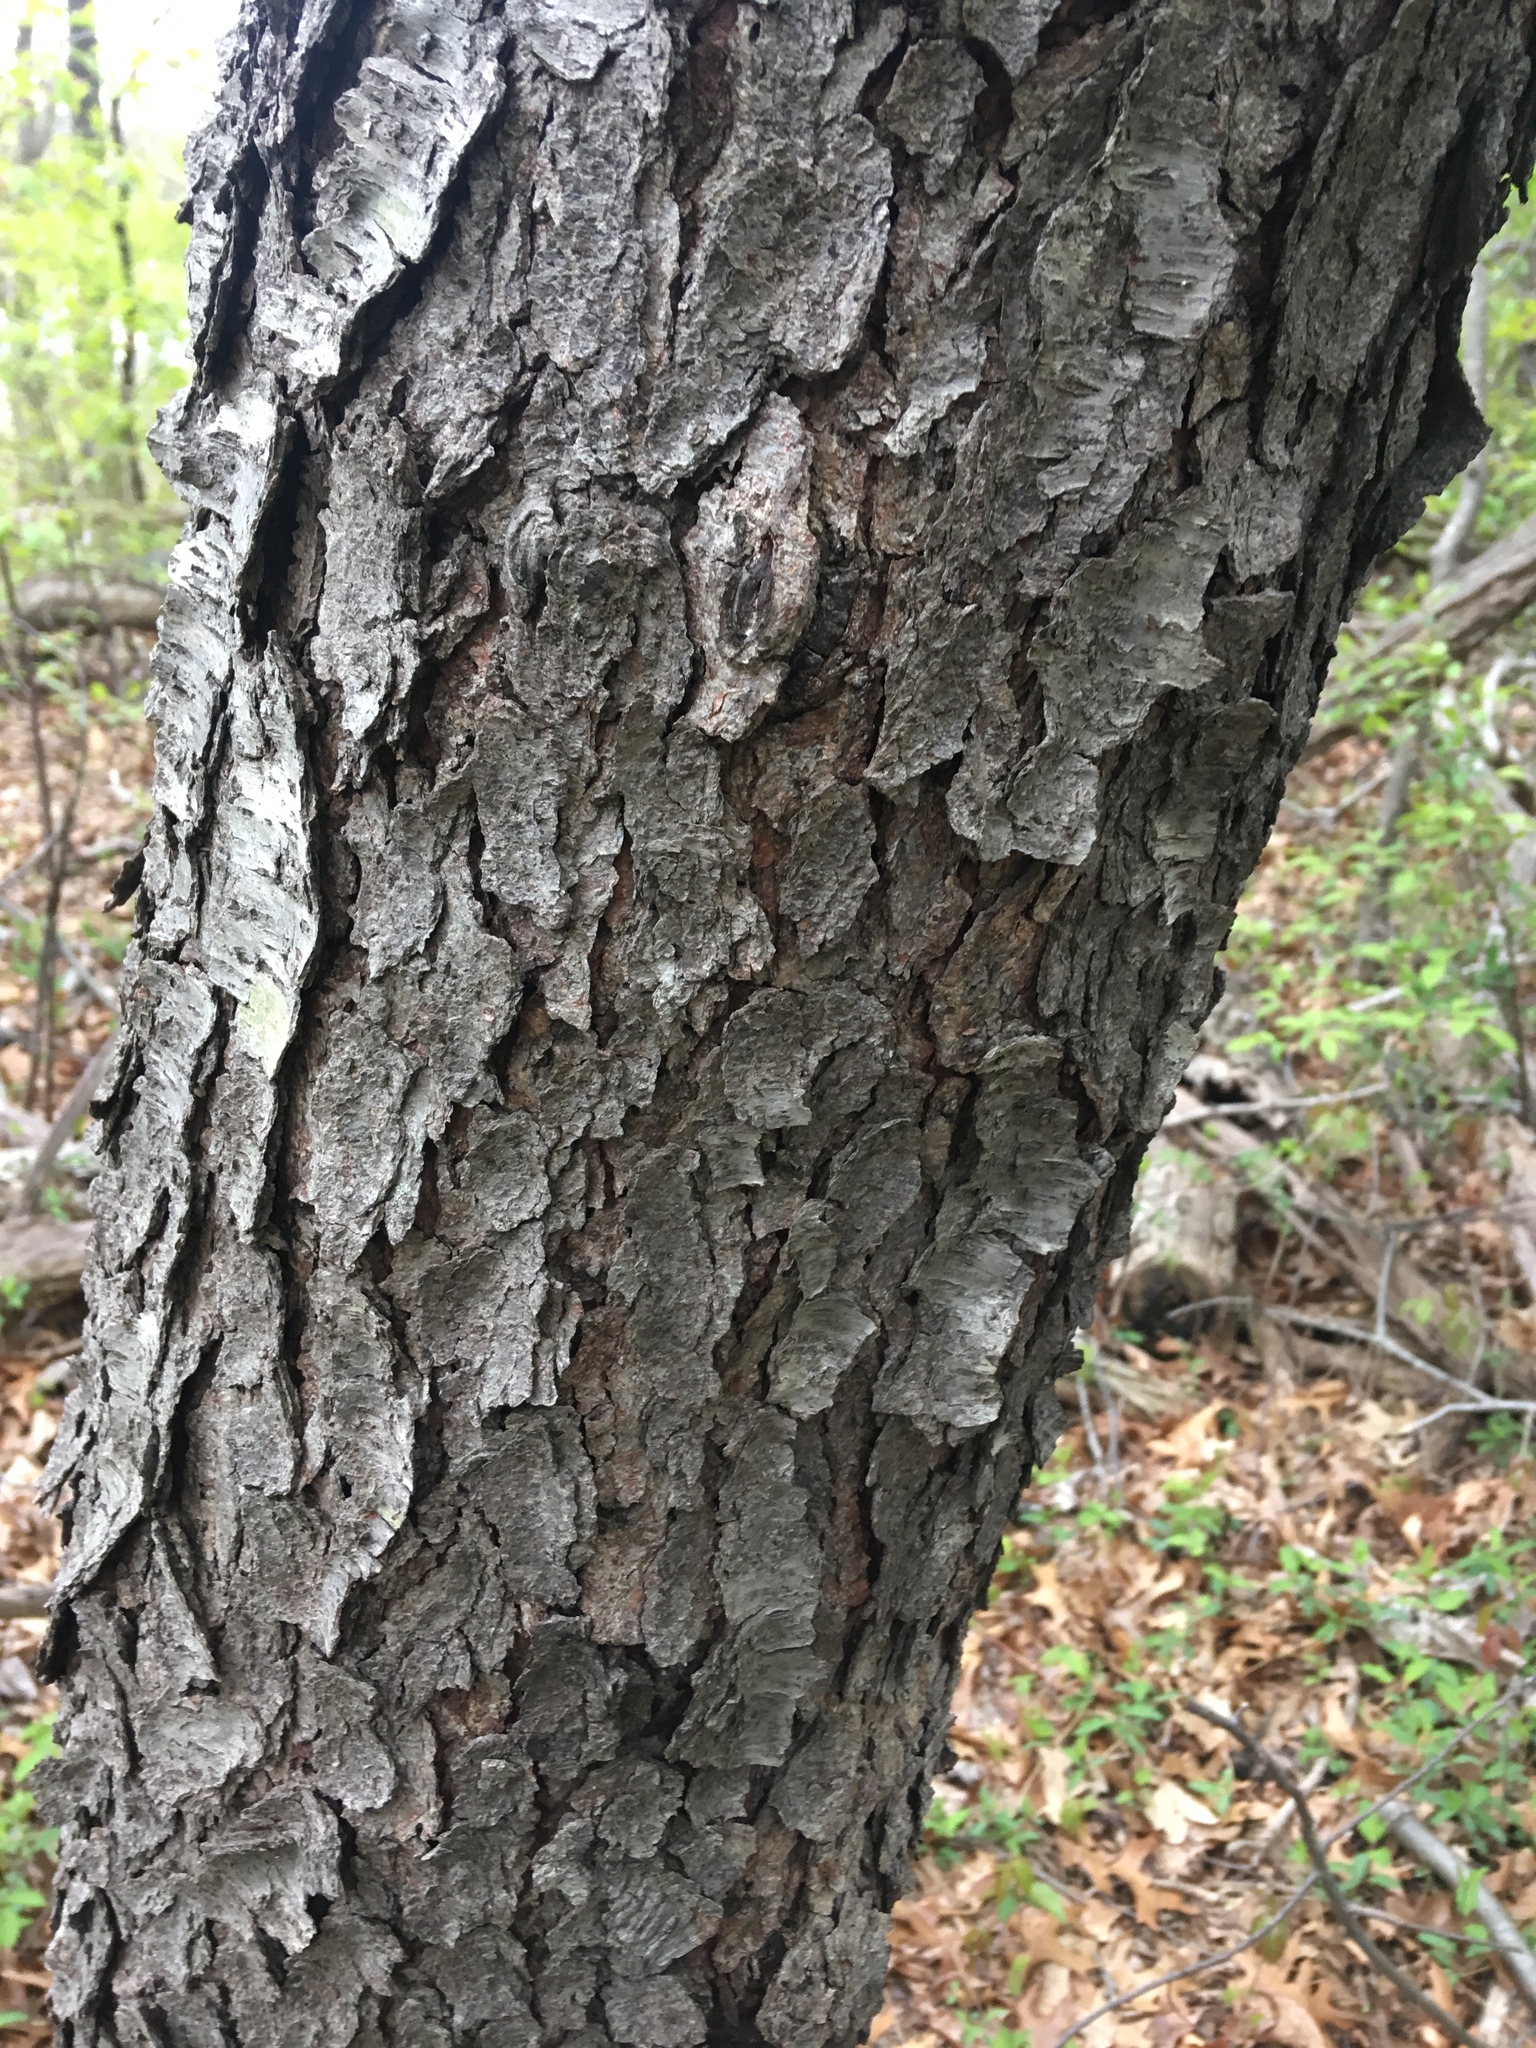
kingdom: Plantae
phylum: Tracheophyta
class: Magnoliopsida
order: Rosales
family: Rosaceae
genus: Prunus
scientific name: Prunus serotina
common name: Black cherry
